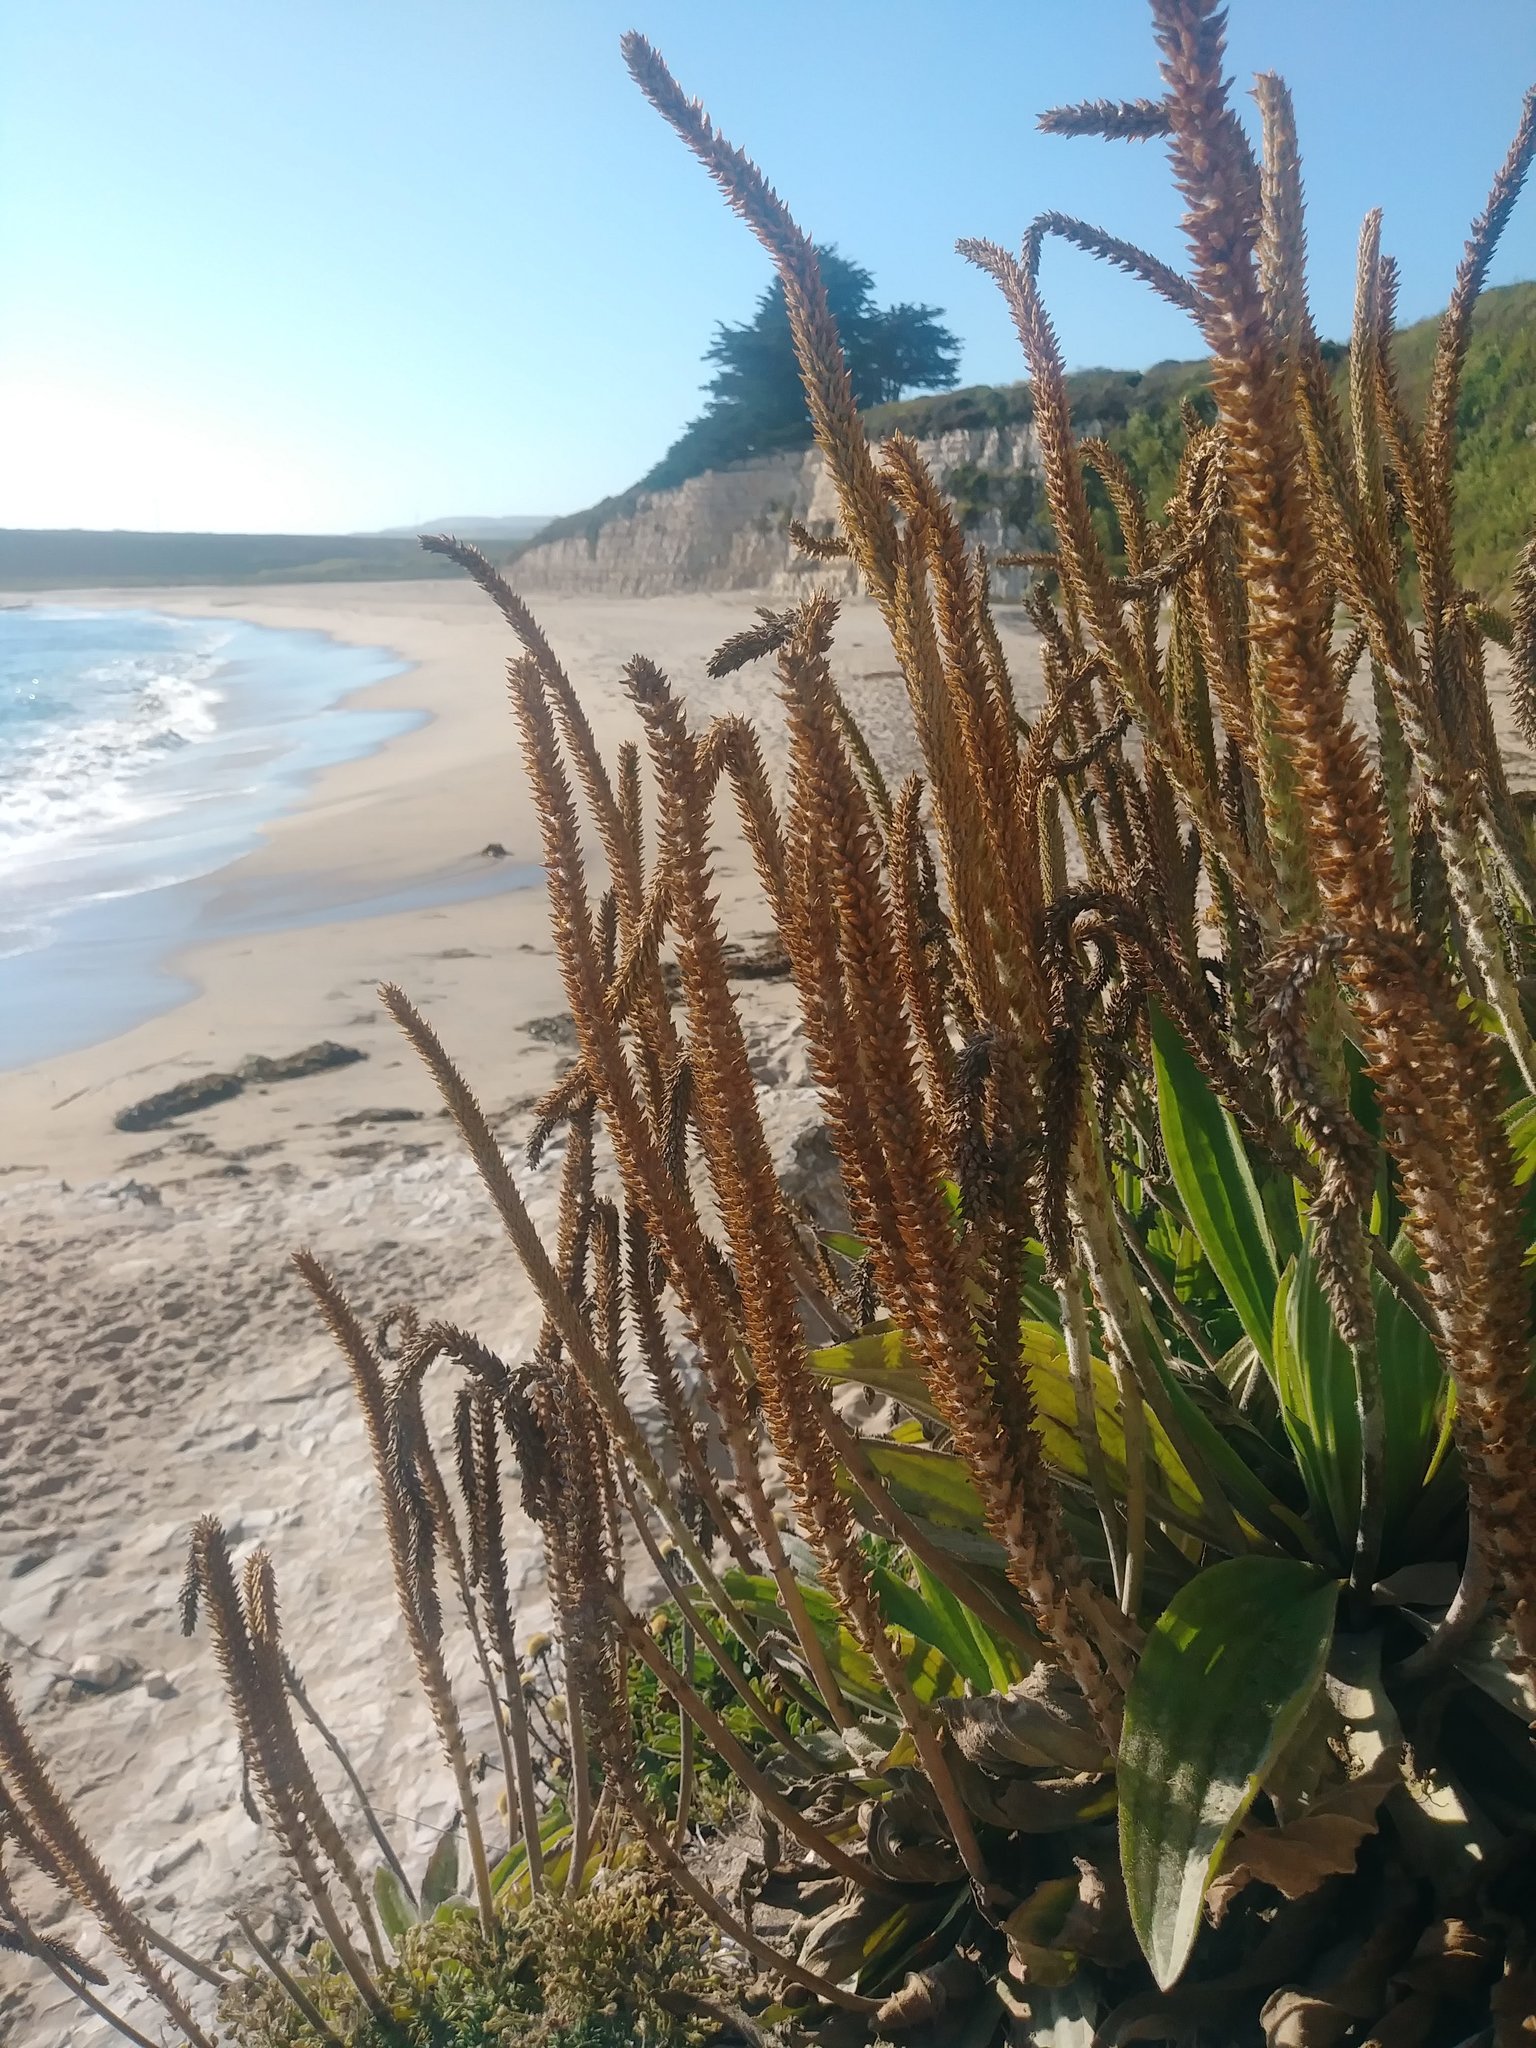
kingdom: Plantae
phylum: Tracheophyta
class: Magnoliopsida
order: Lamiales
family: Plantaginaceae
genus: Plantago
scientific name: Plantago subnuda
